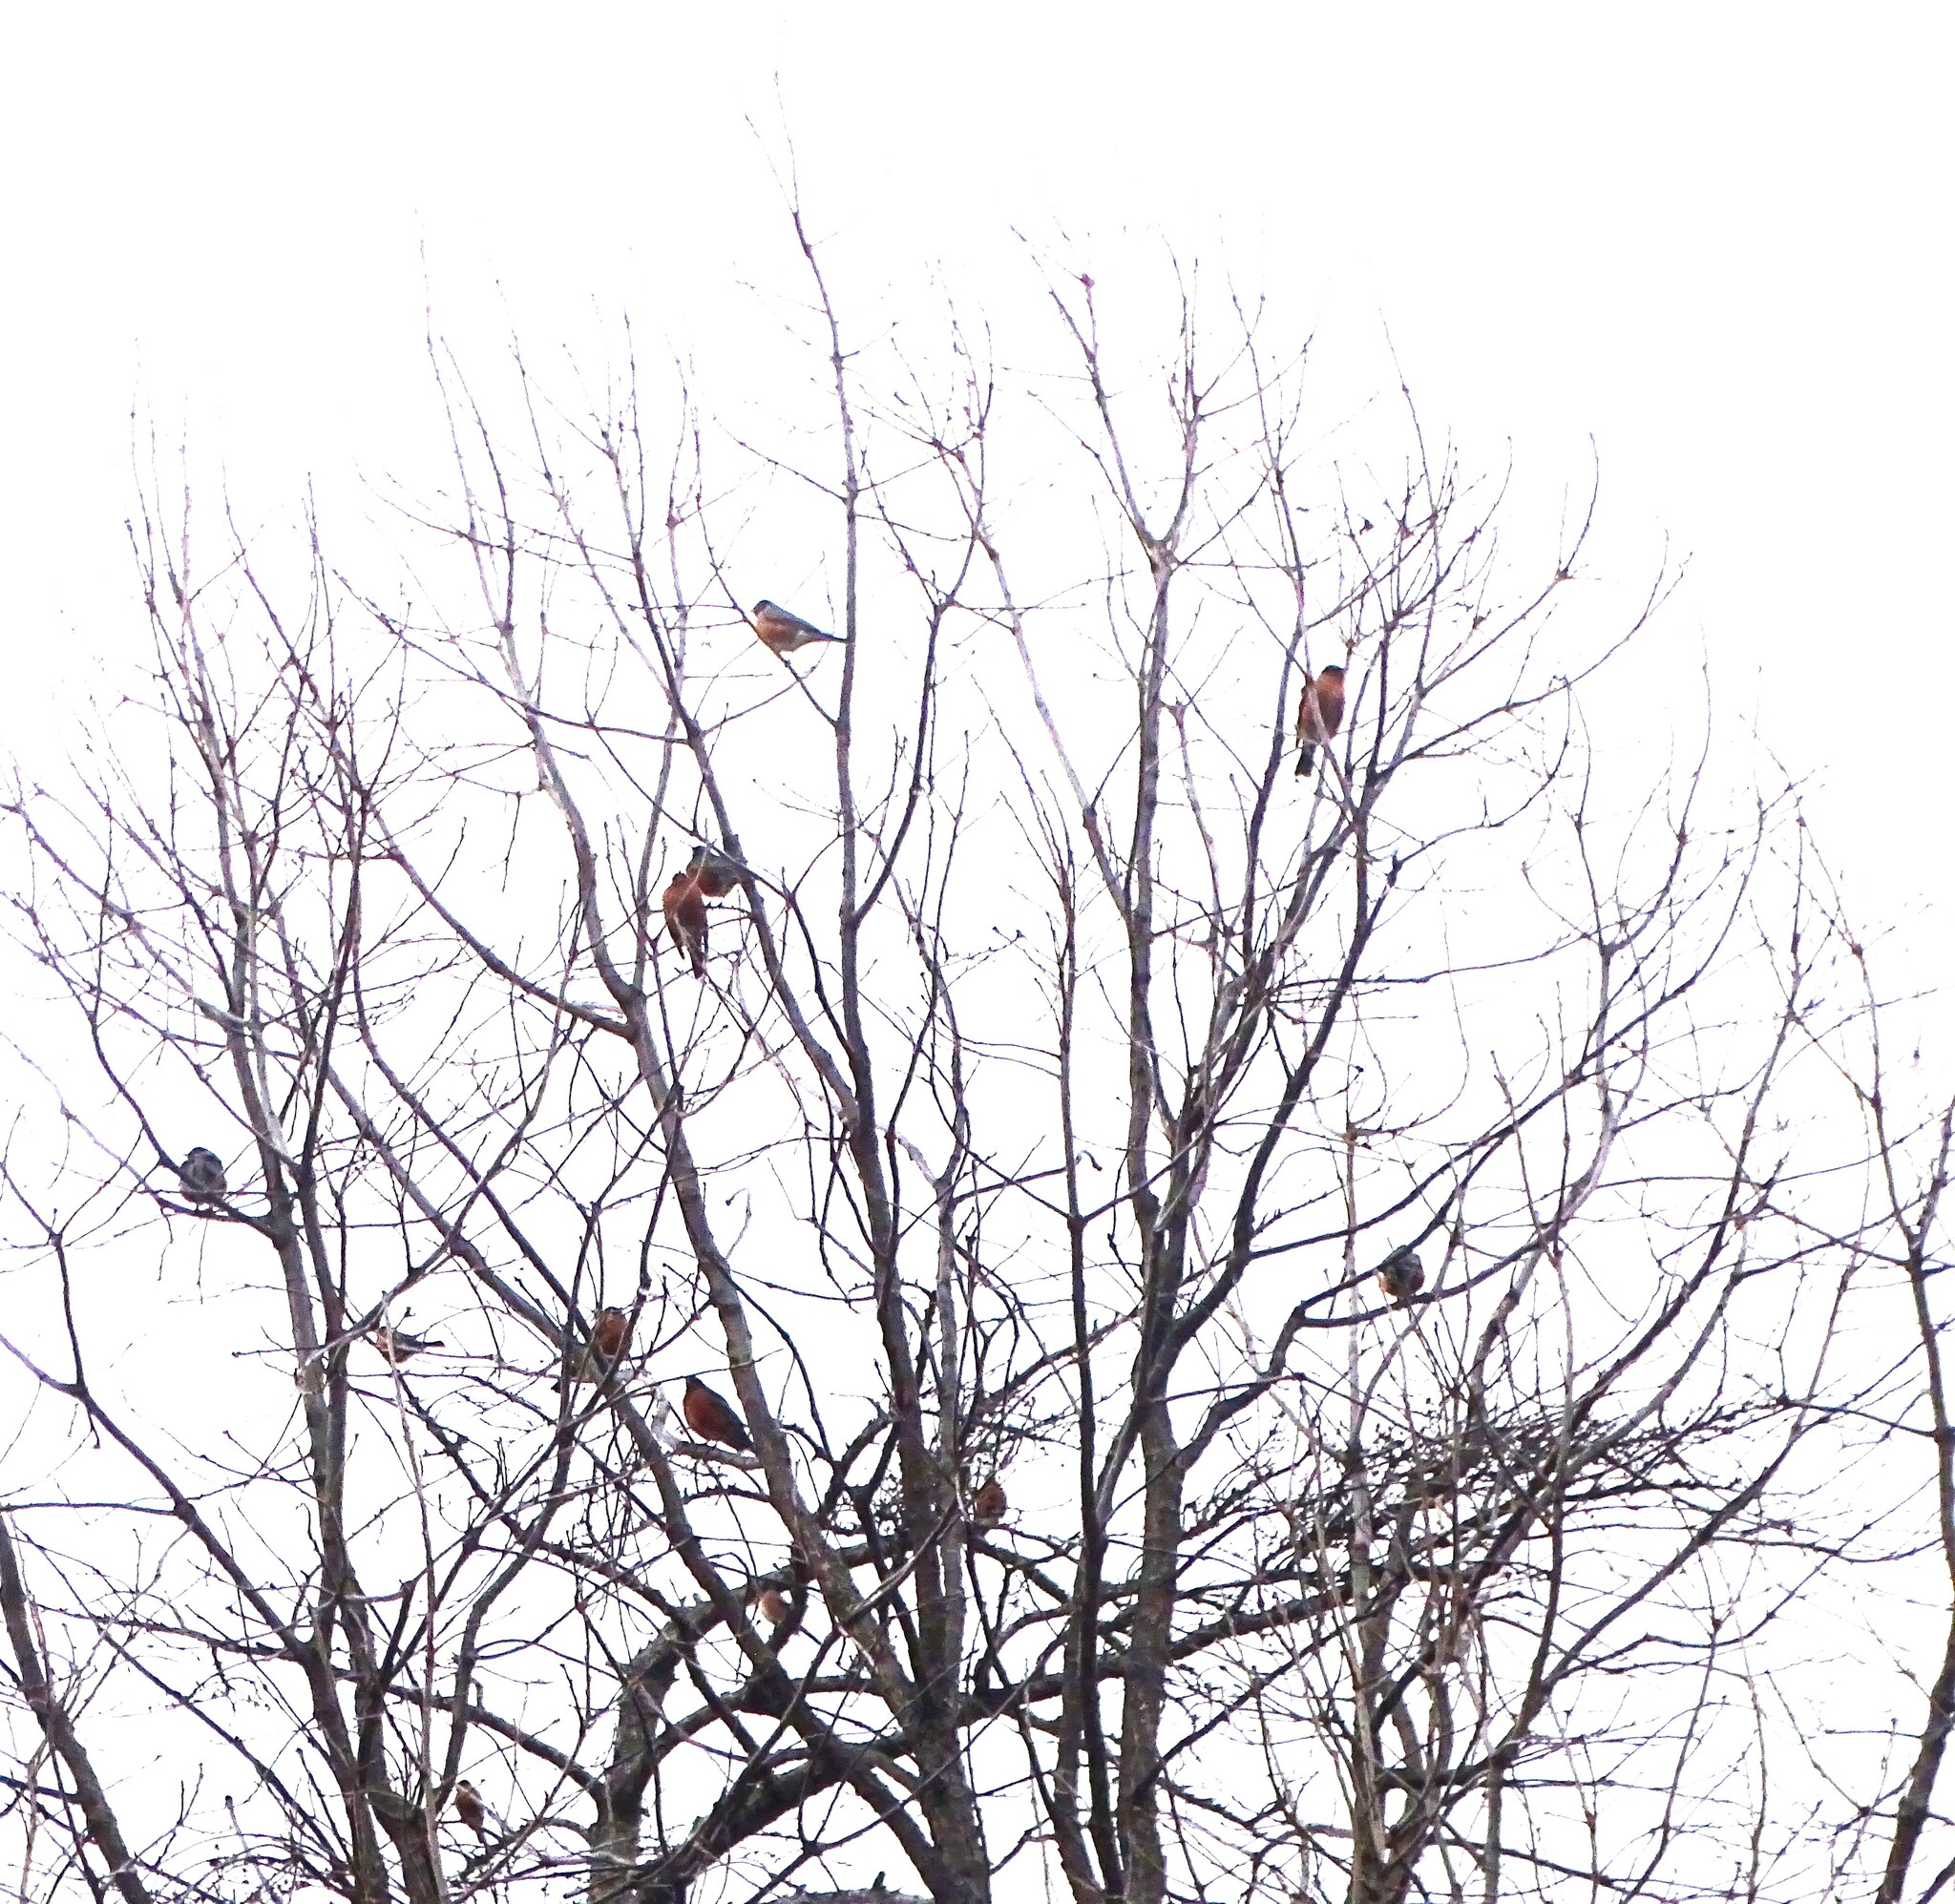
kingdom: Animalia
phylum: Chordata
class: Aves
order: Passeriformes
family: Turdidae
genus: Turdus
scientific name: Turdus migratorius
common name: American robin
